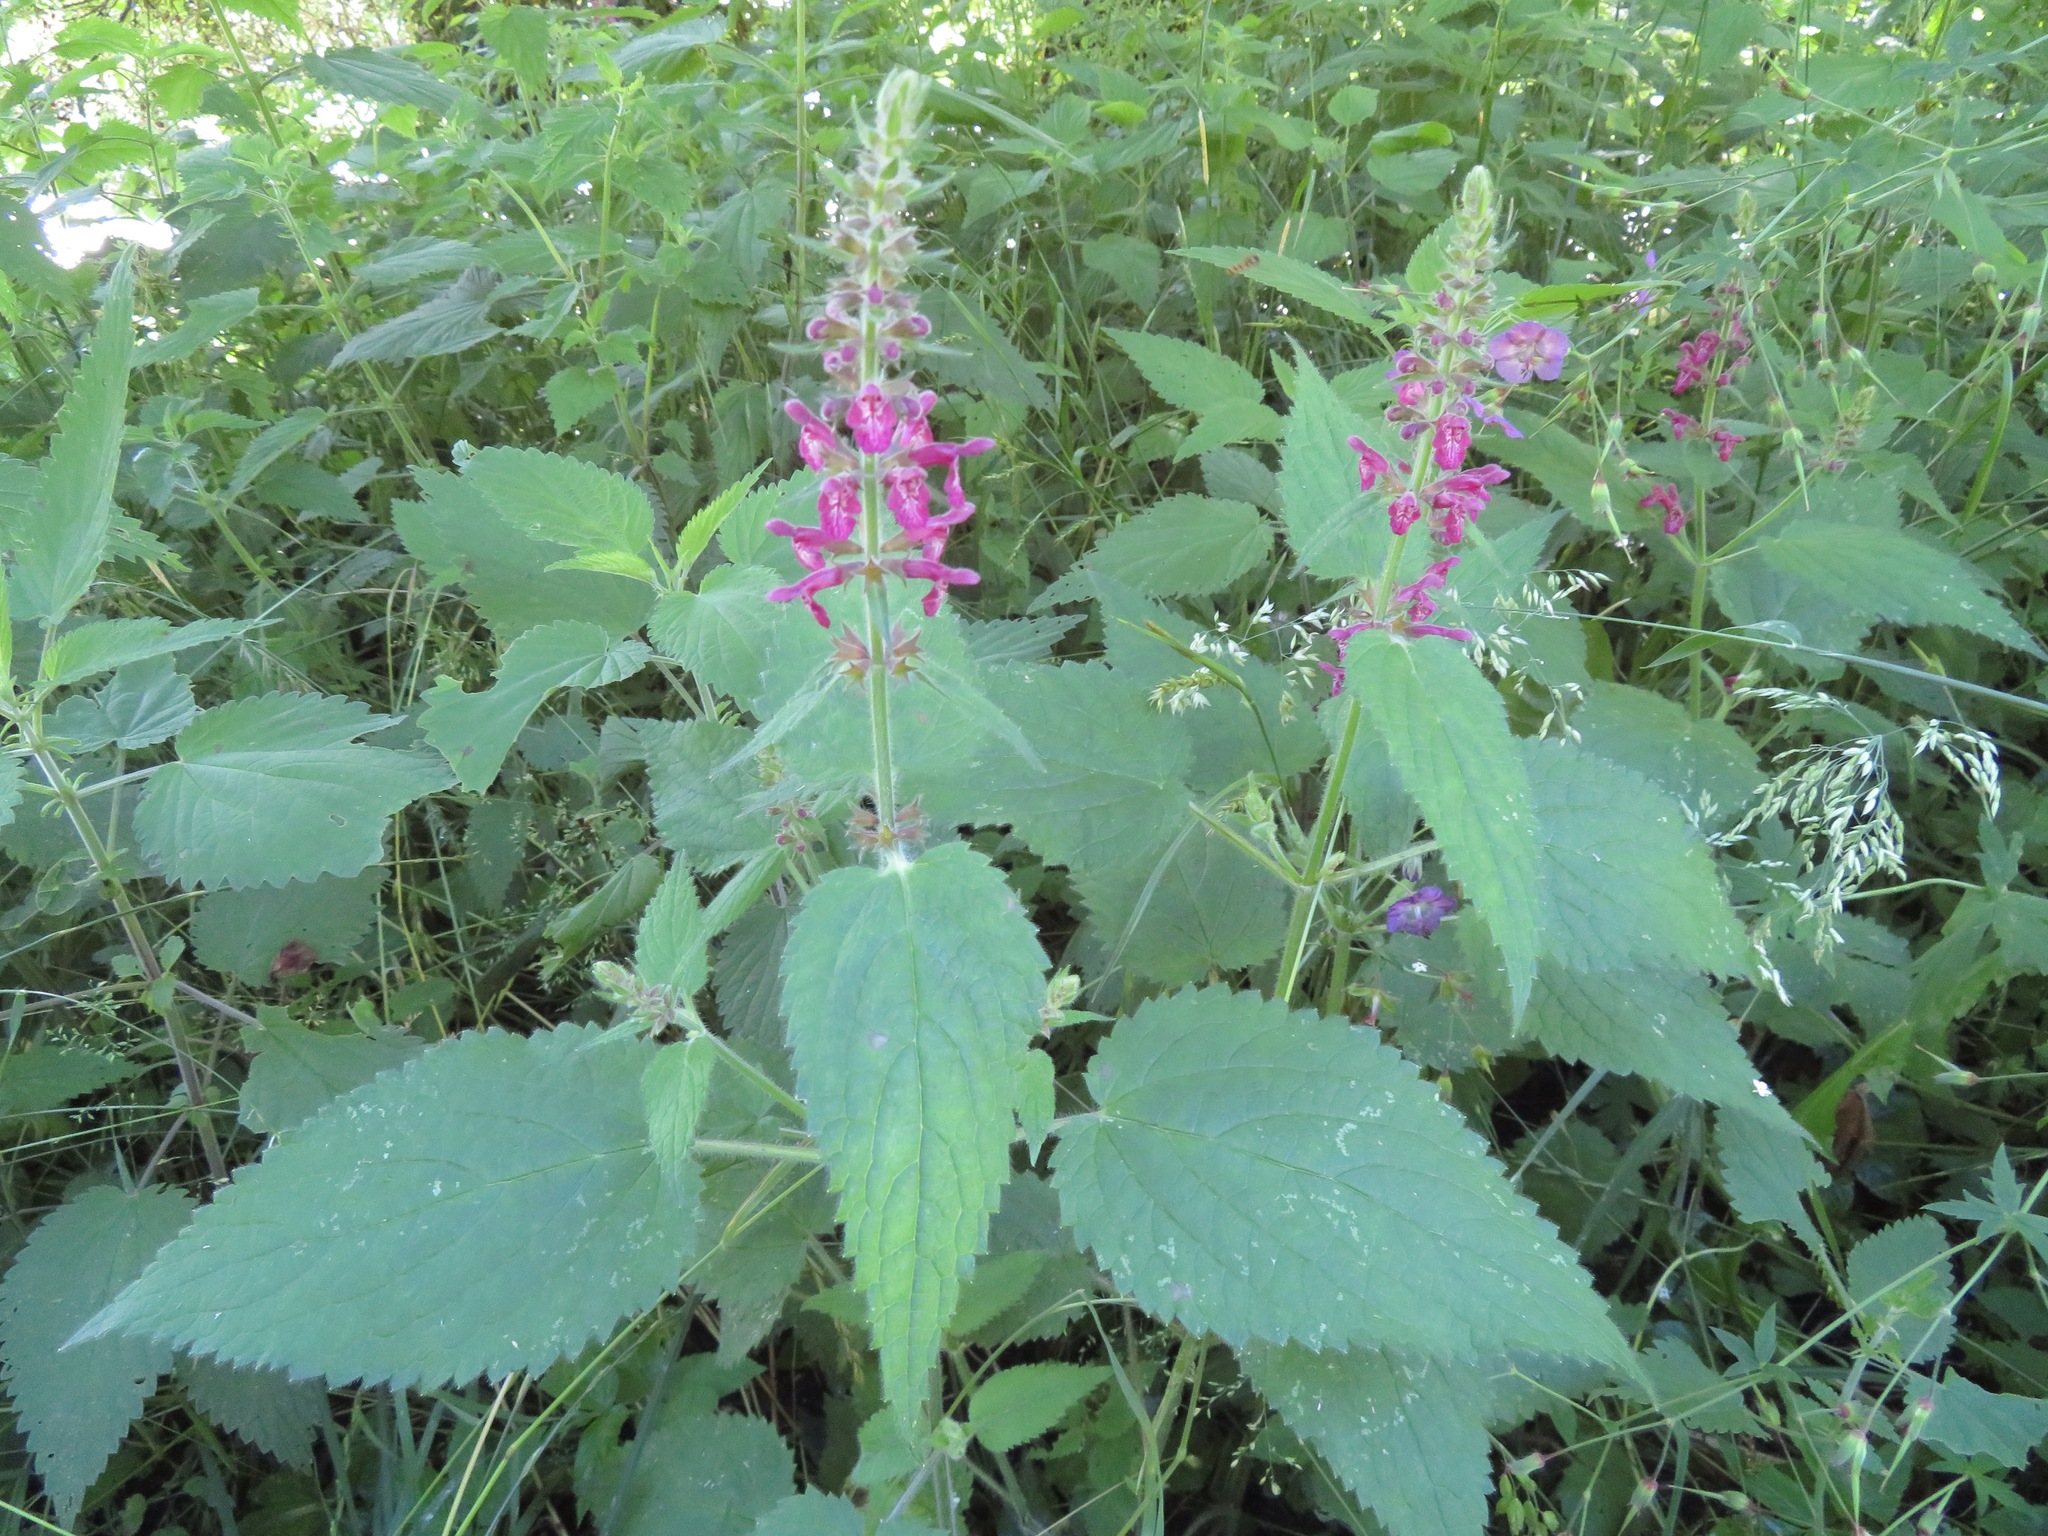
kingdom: Plantae
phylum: Tracheophyta
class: Magnoliopsida
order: Lamiales
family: Lamiaceae
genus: Stachys
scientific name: Stachys sylvatica
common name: Hedge woundwort
